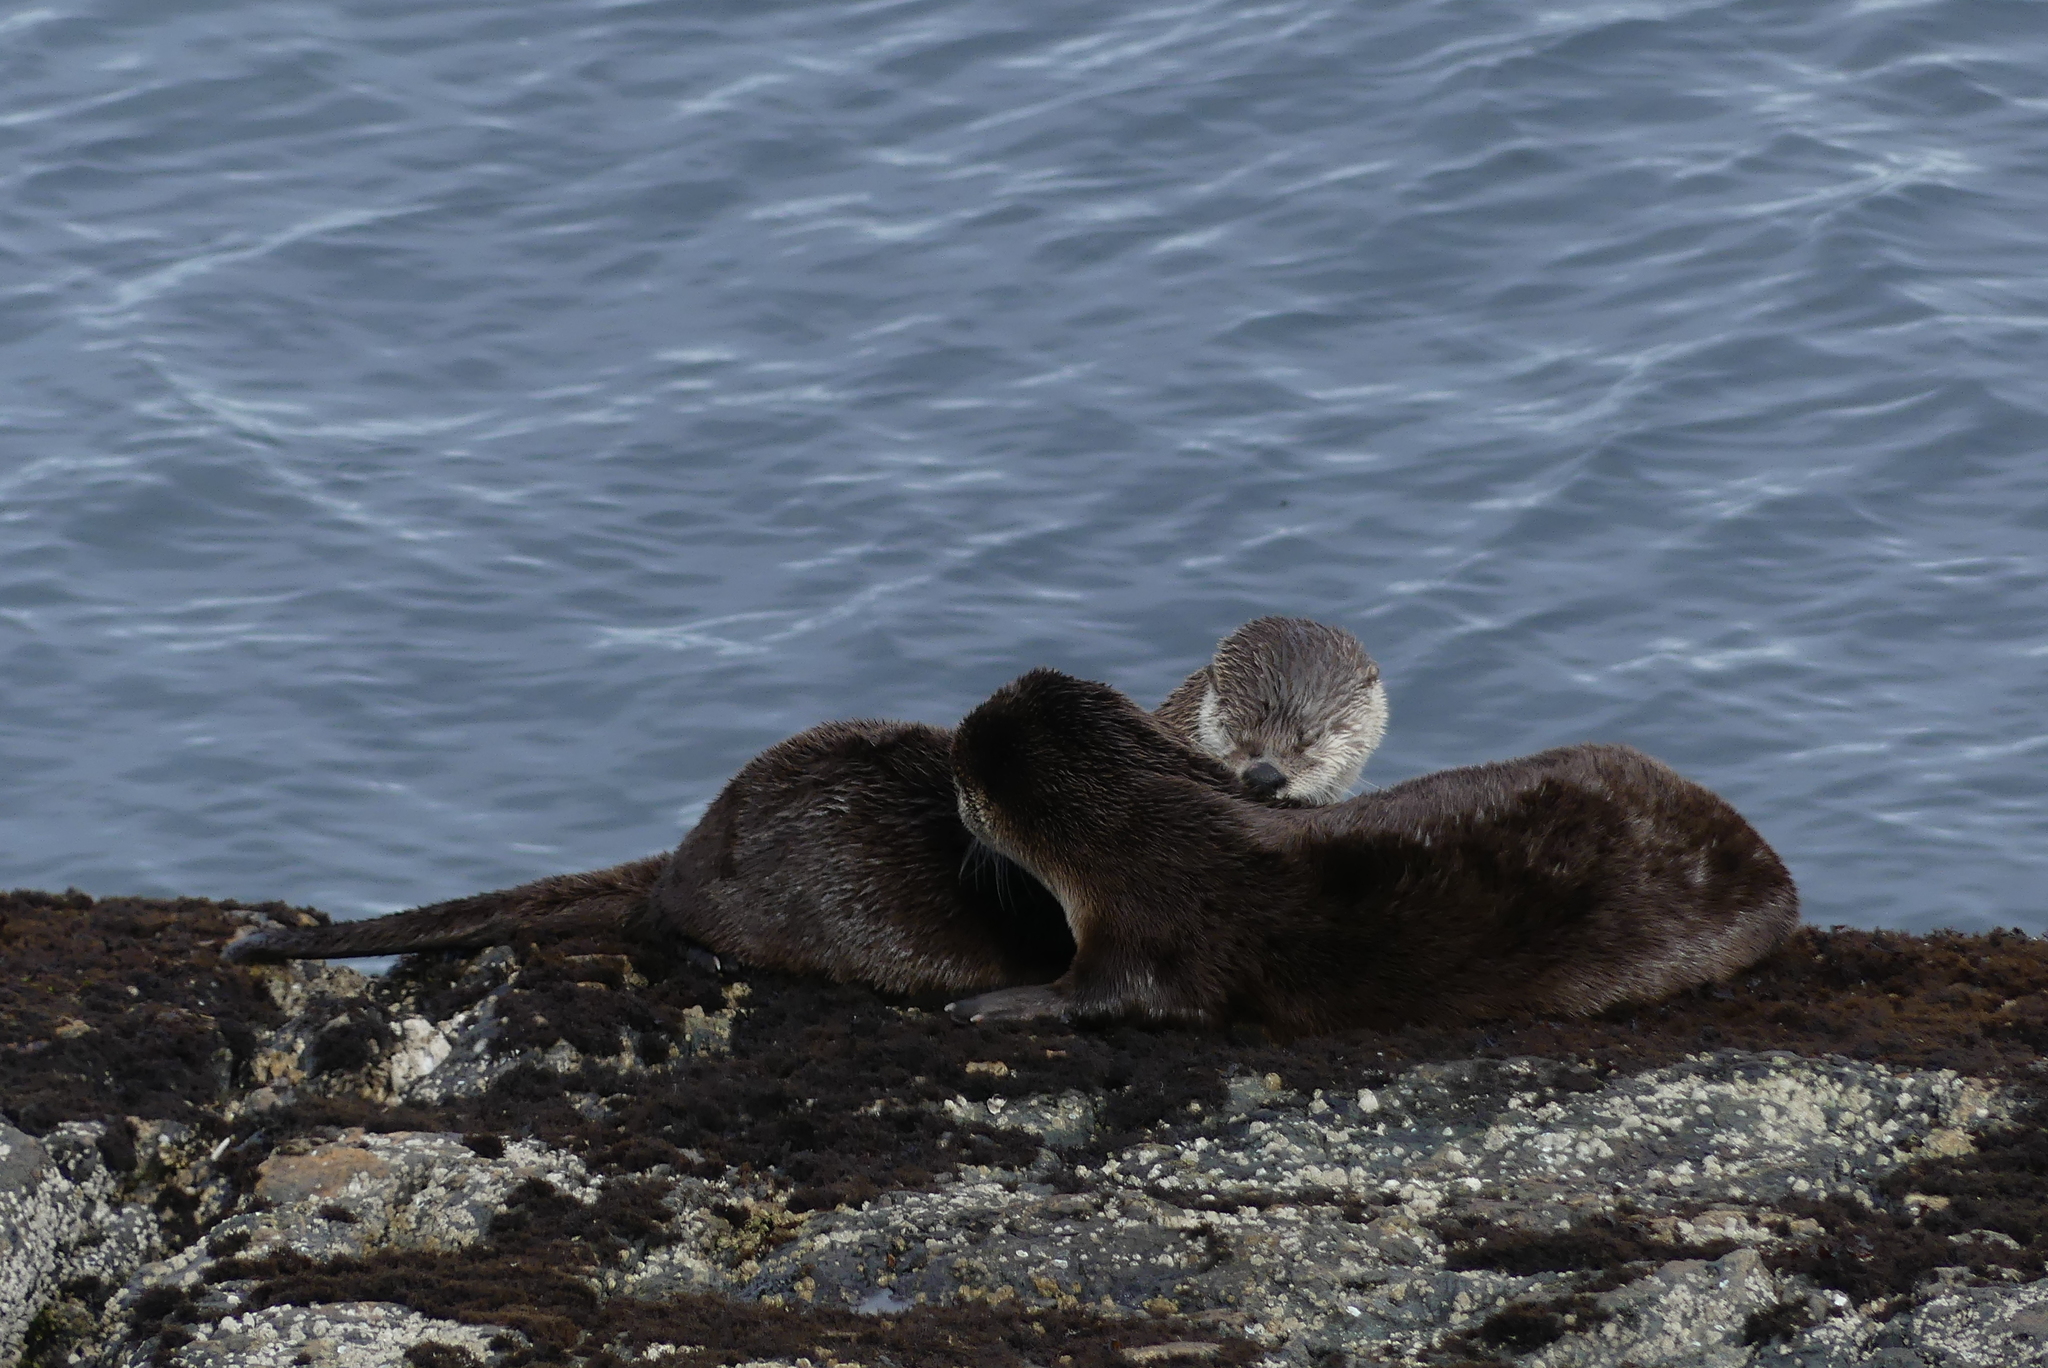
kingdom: Animalia
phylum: Chordata
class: Mammalia
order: Carnivora
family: Mustelidae
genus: Lontra
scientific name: Lontra canadensis
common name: North american river otter
